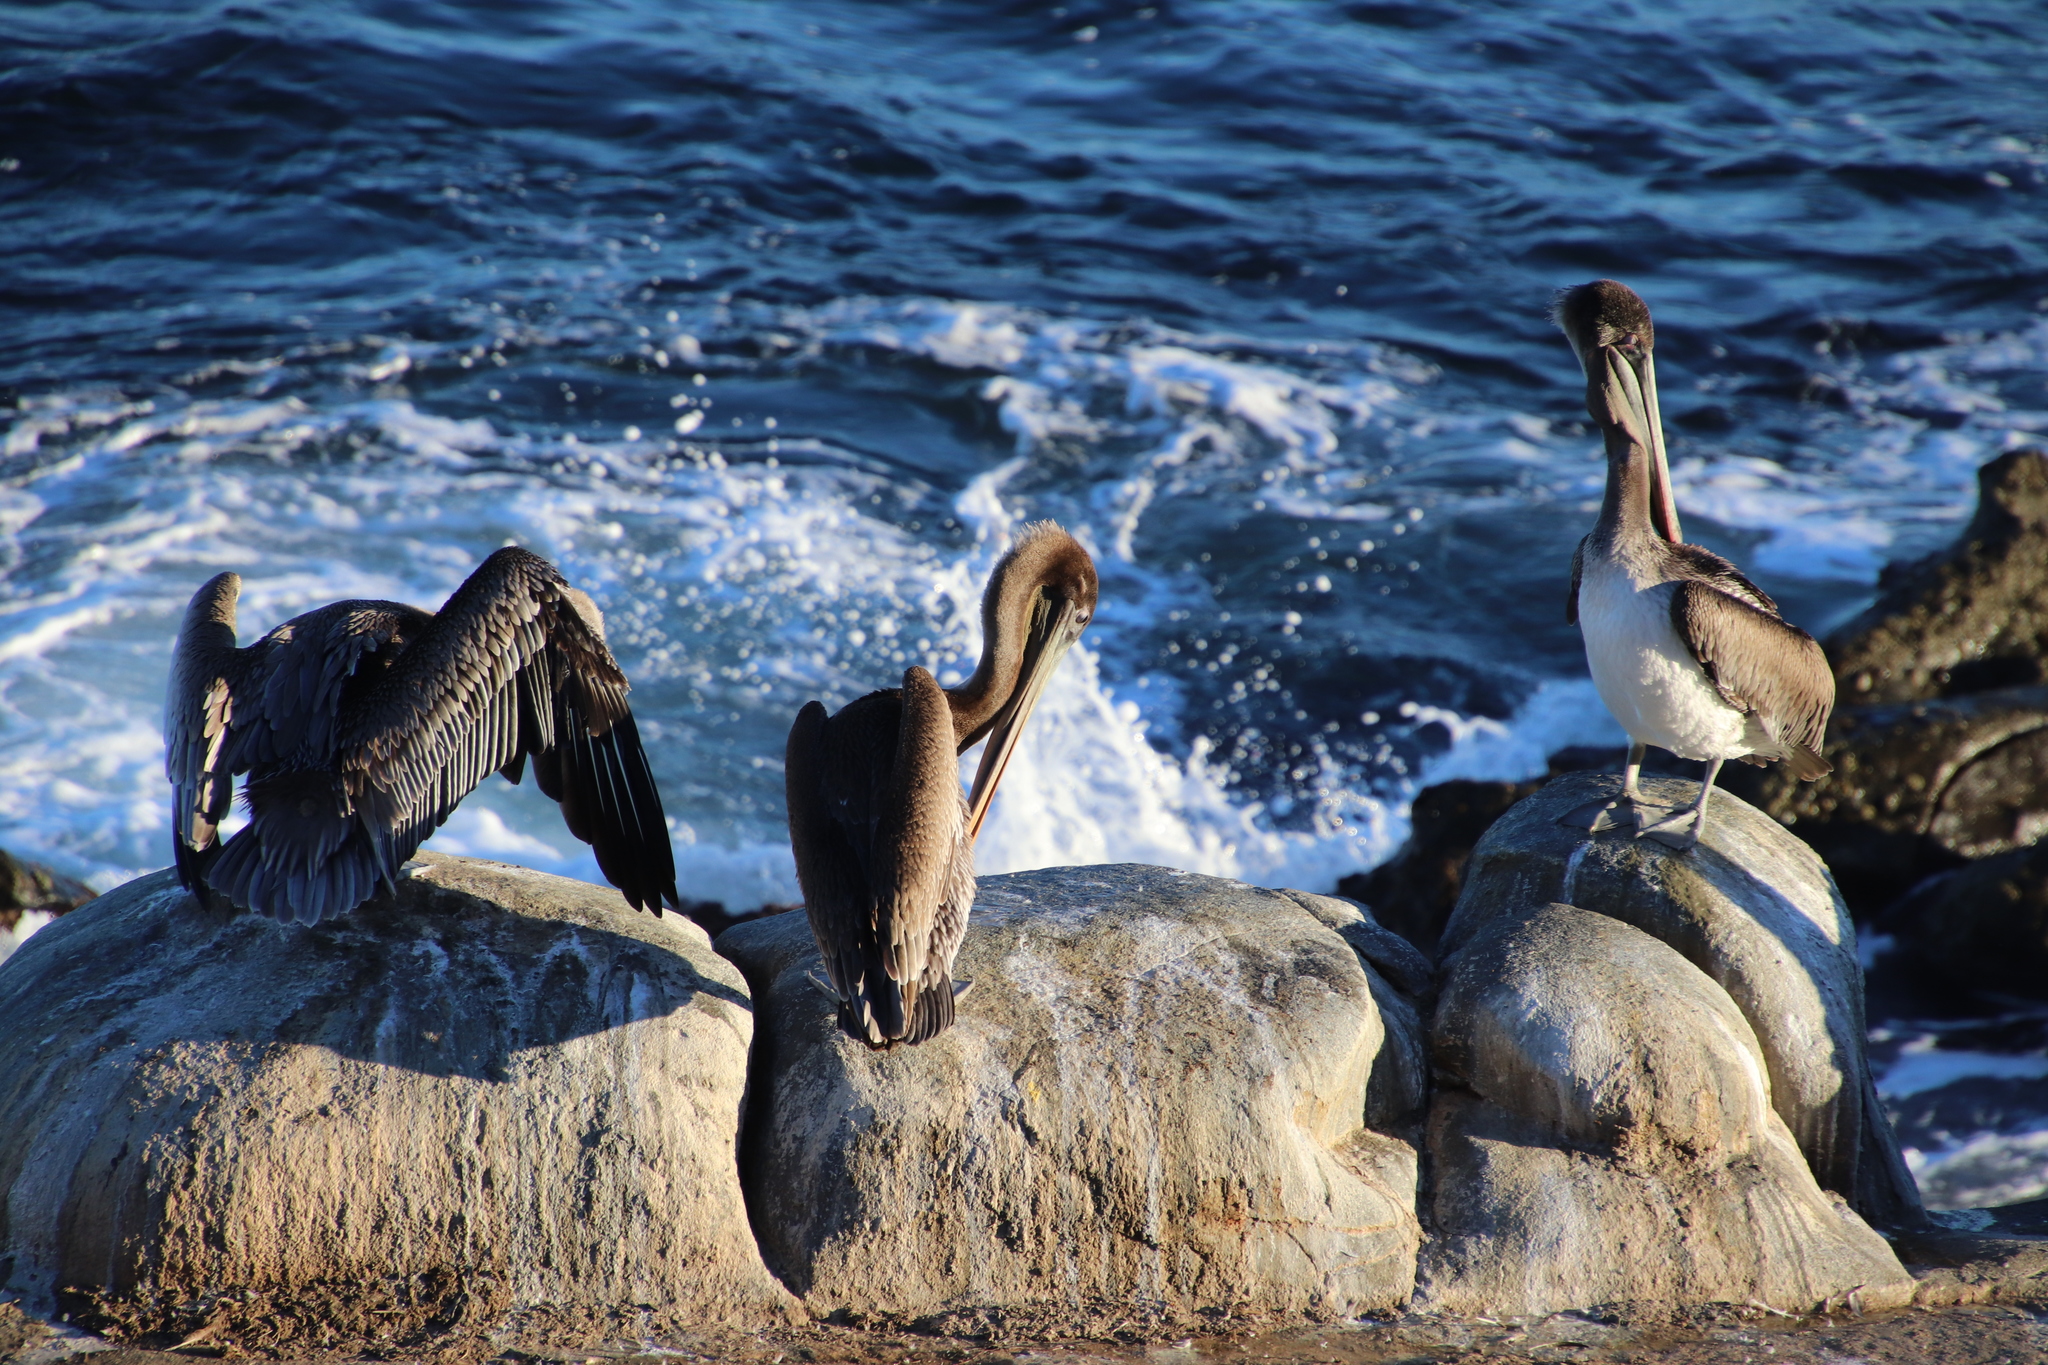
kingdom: Animalia
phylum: Chordata
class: Aves
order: Pelecaniformes
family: Pelecanidae
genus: Pelecanus
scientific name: Pelecanus occidentalis
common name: Brown pelican
